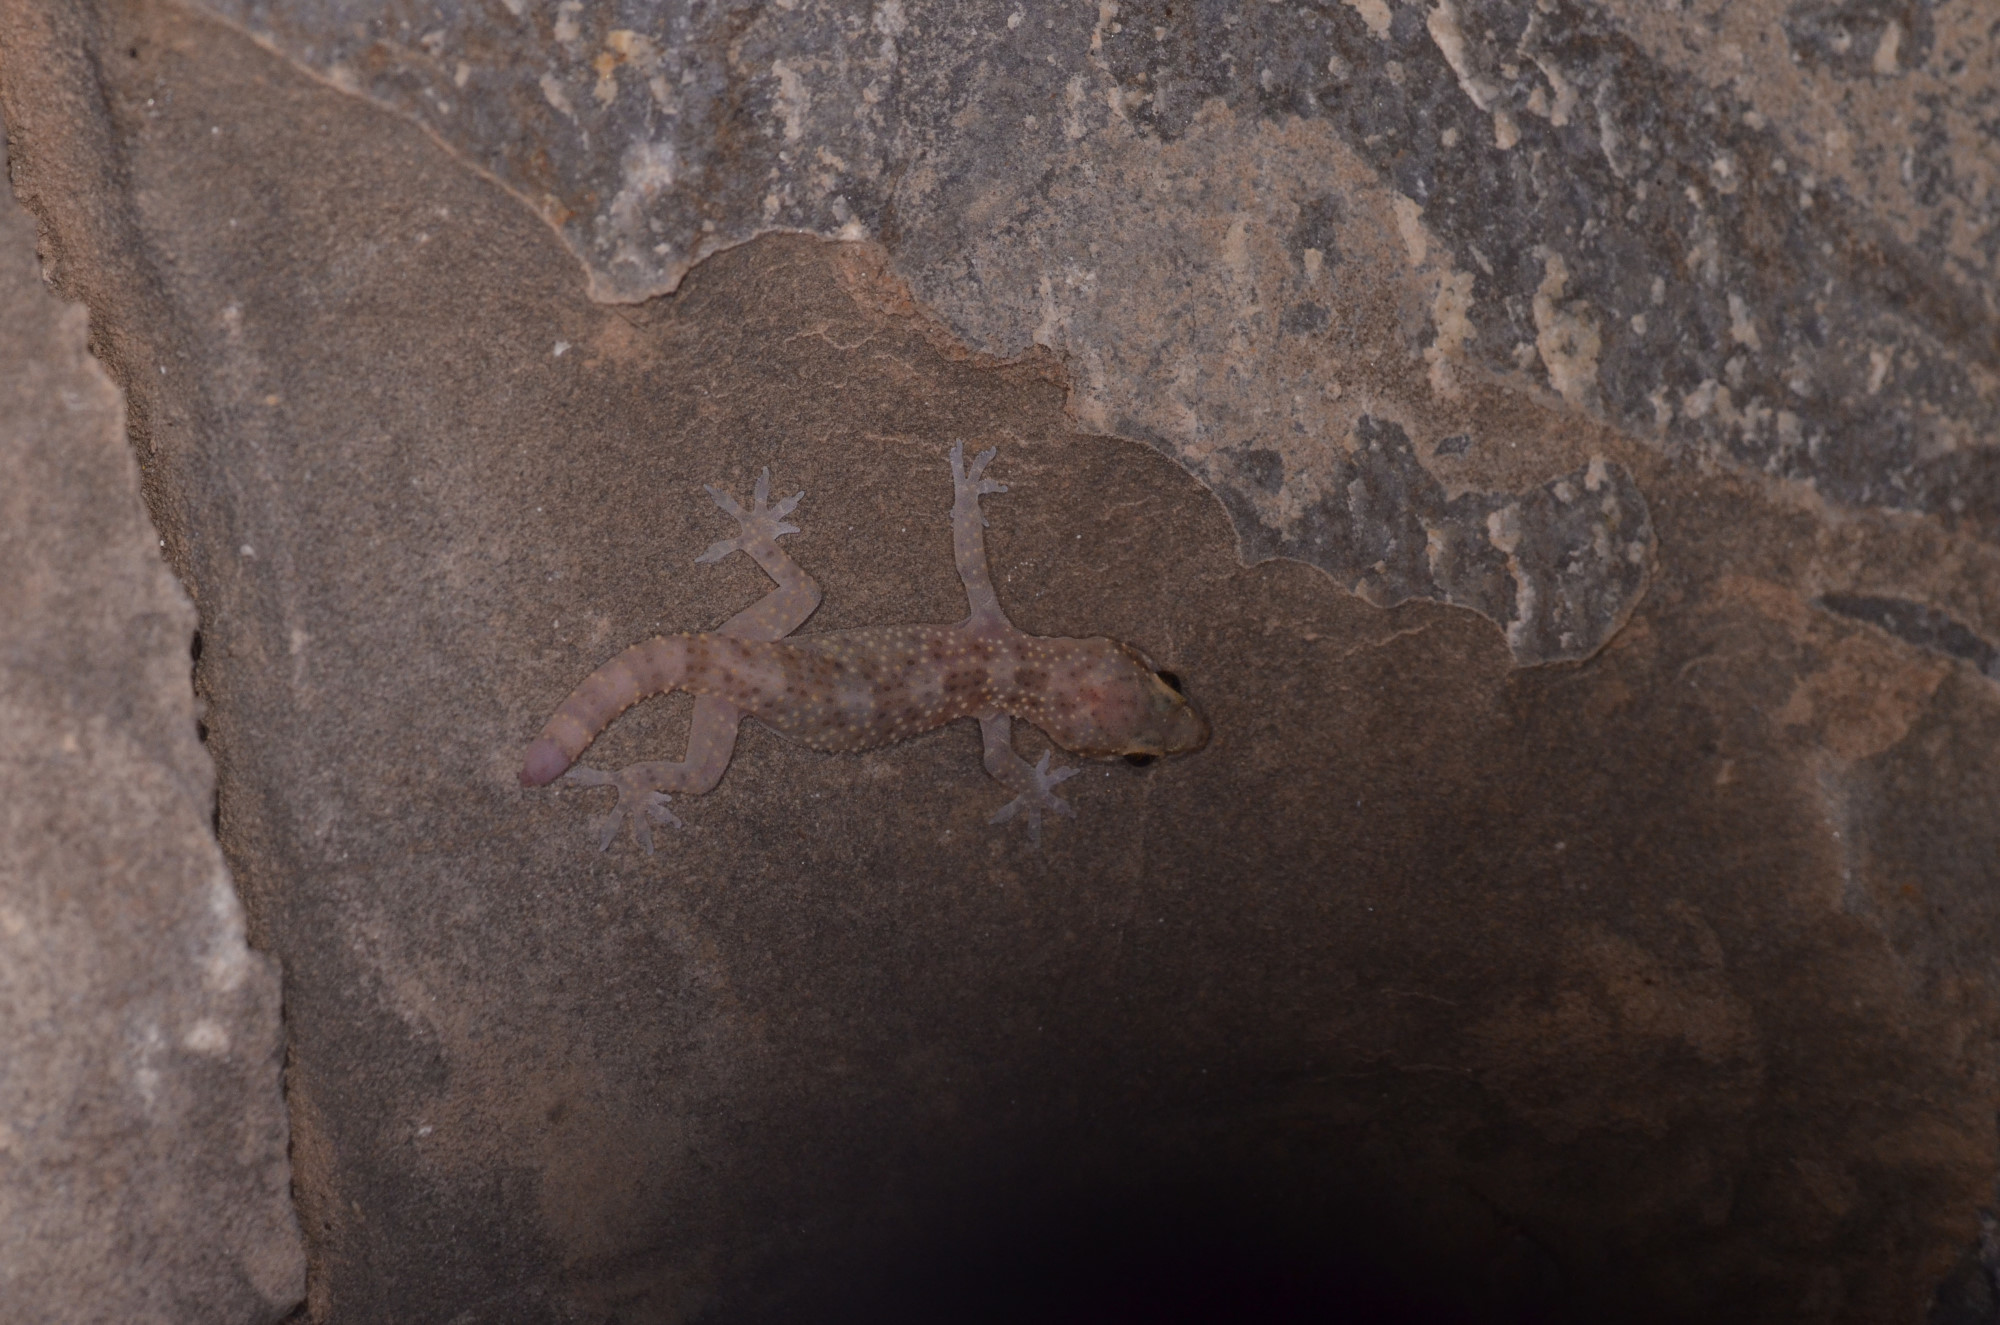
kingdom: Animalia
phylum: Chordata
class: Squamata
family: Gekkonidae
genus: Hemidactylus
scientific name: Hemidactylus turcicus
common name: Turkish gecko
